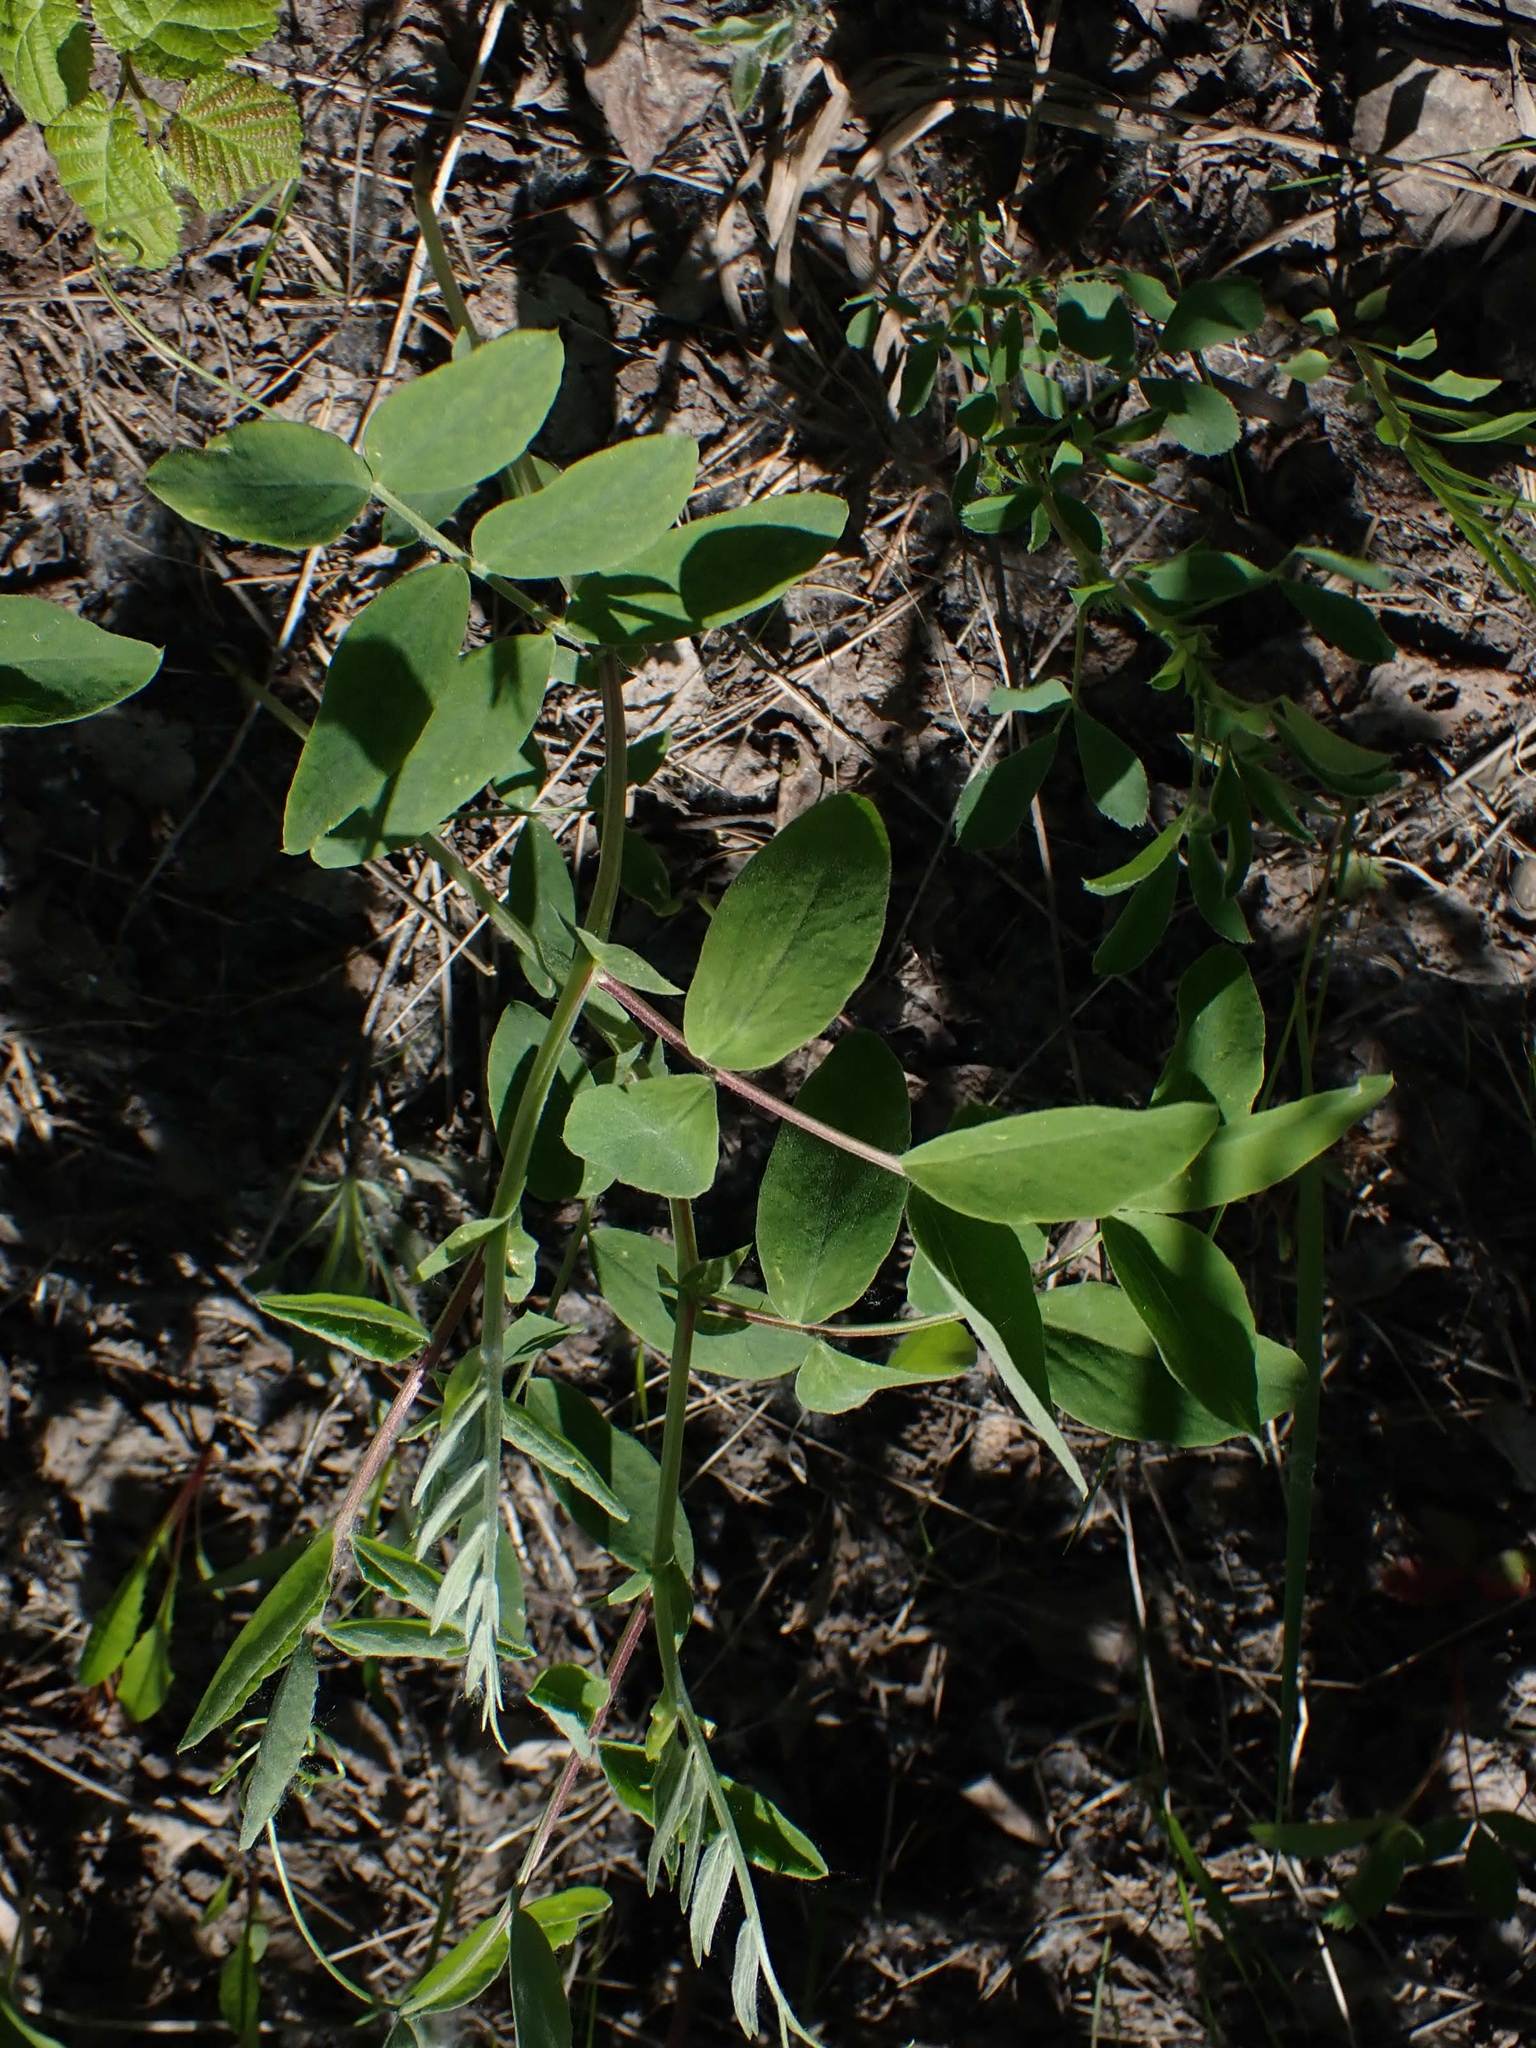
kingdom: Plantae
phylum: Tracheophyta
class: Magnoliopsida
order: Fabales
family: Fabaceae
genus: Lathyrus
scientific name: Lathyrus venosus
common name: Forest-pea
